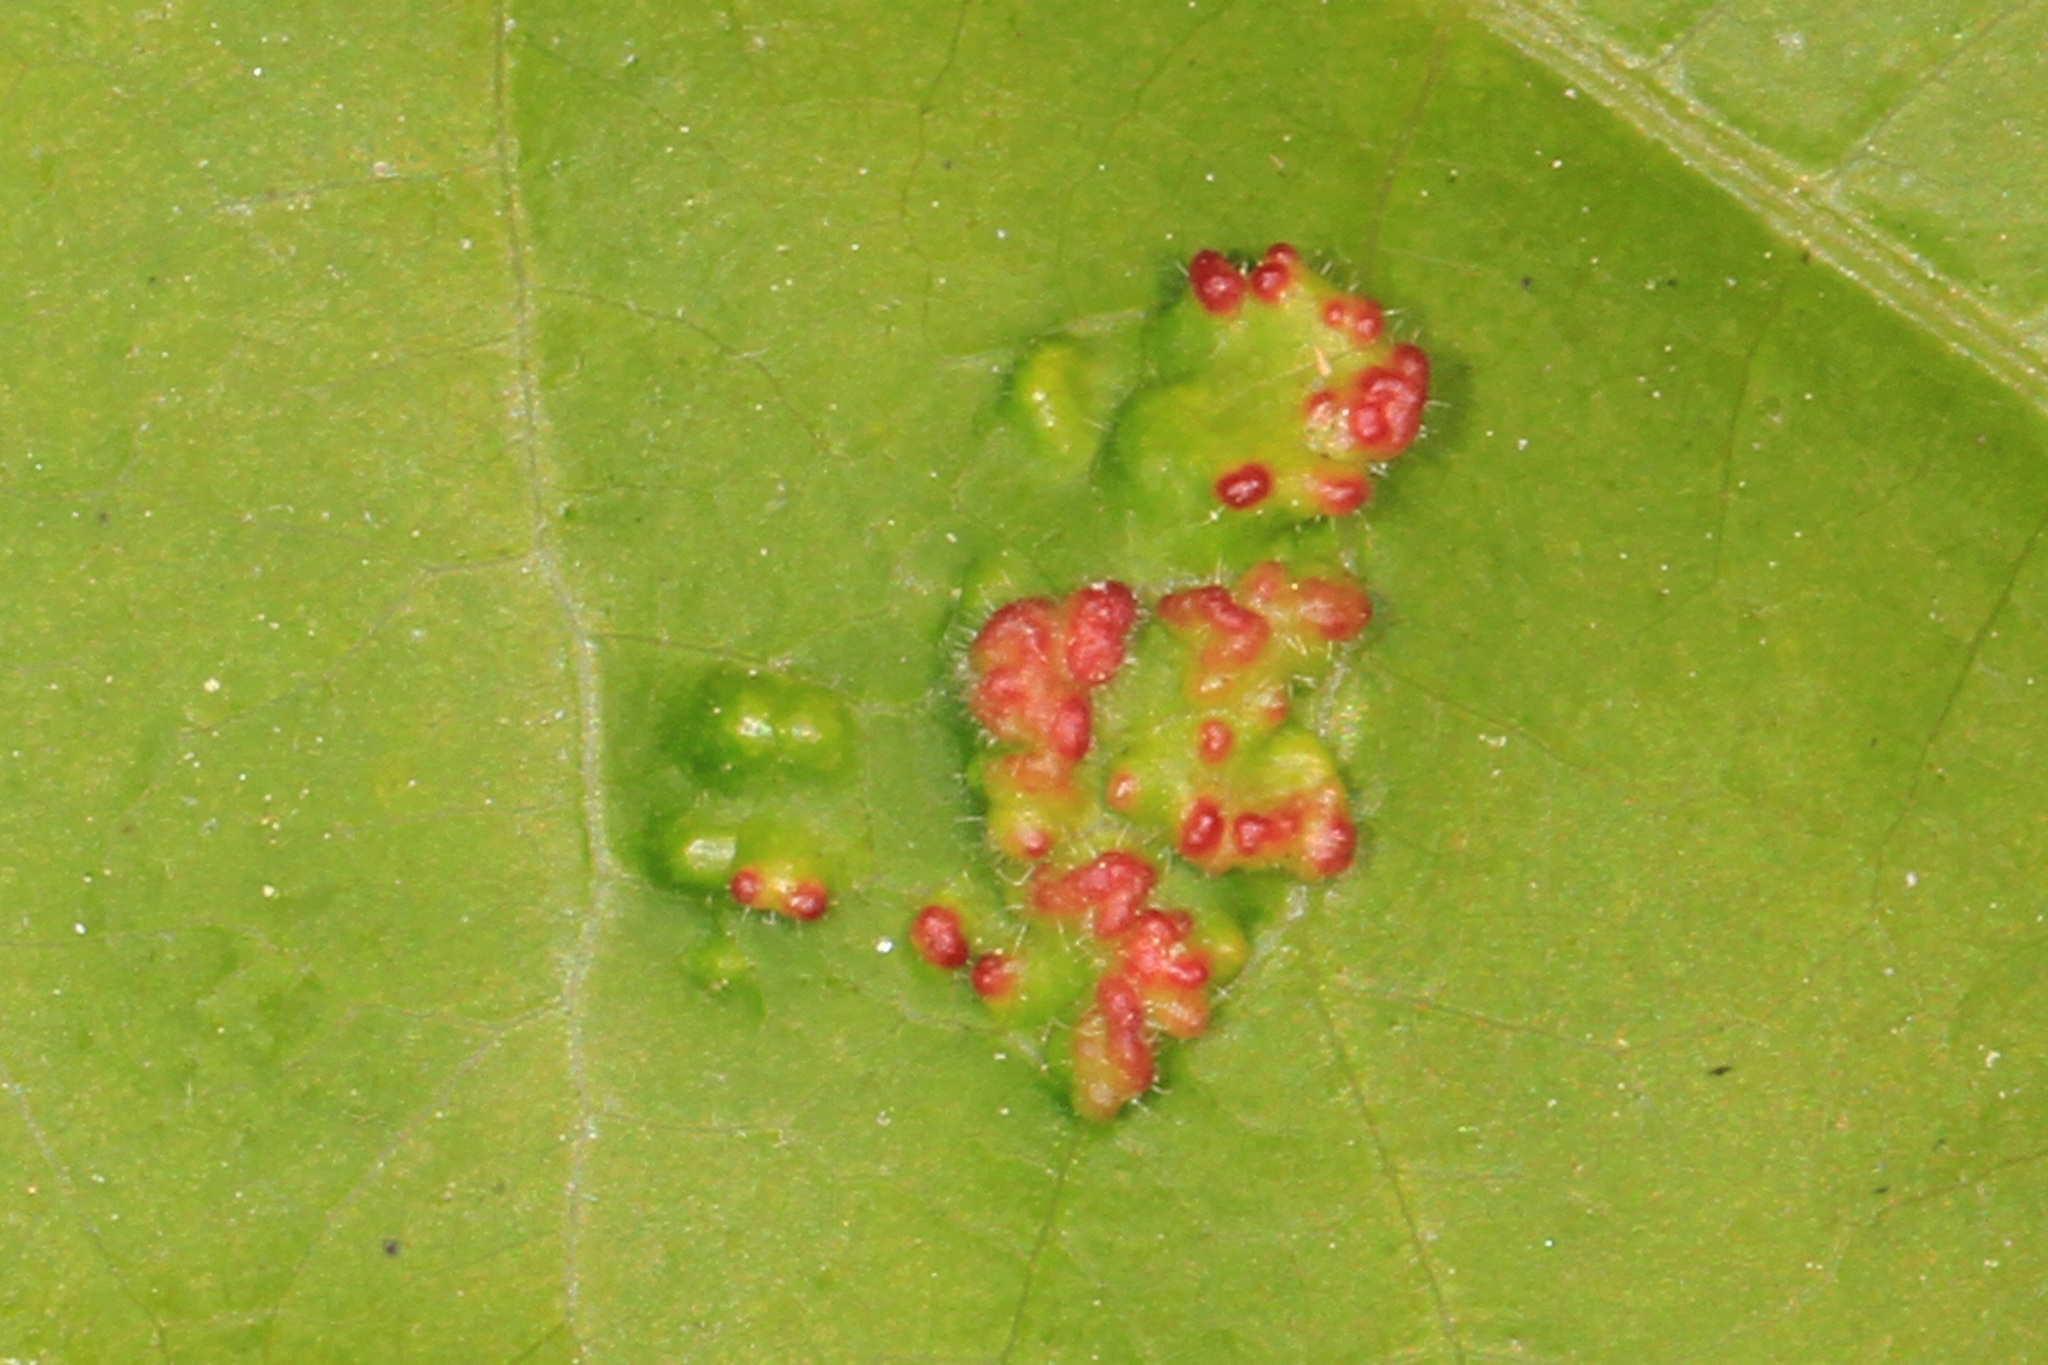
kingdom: Animalia
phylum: Arthropoda
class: Arachnida
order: Trombidiformes
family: Eriophyidae
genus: Aculops
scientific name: Aculops
